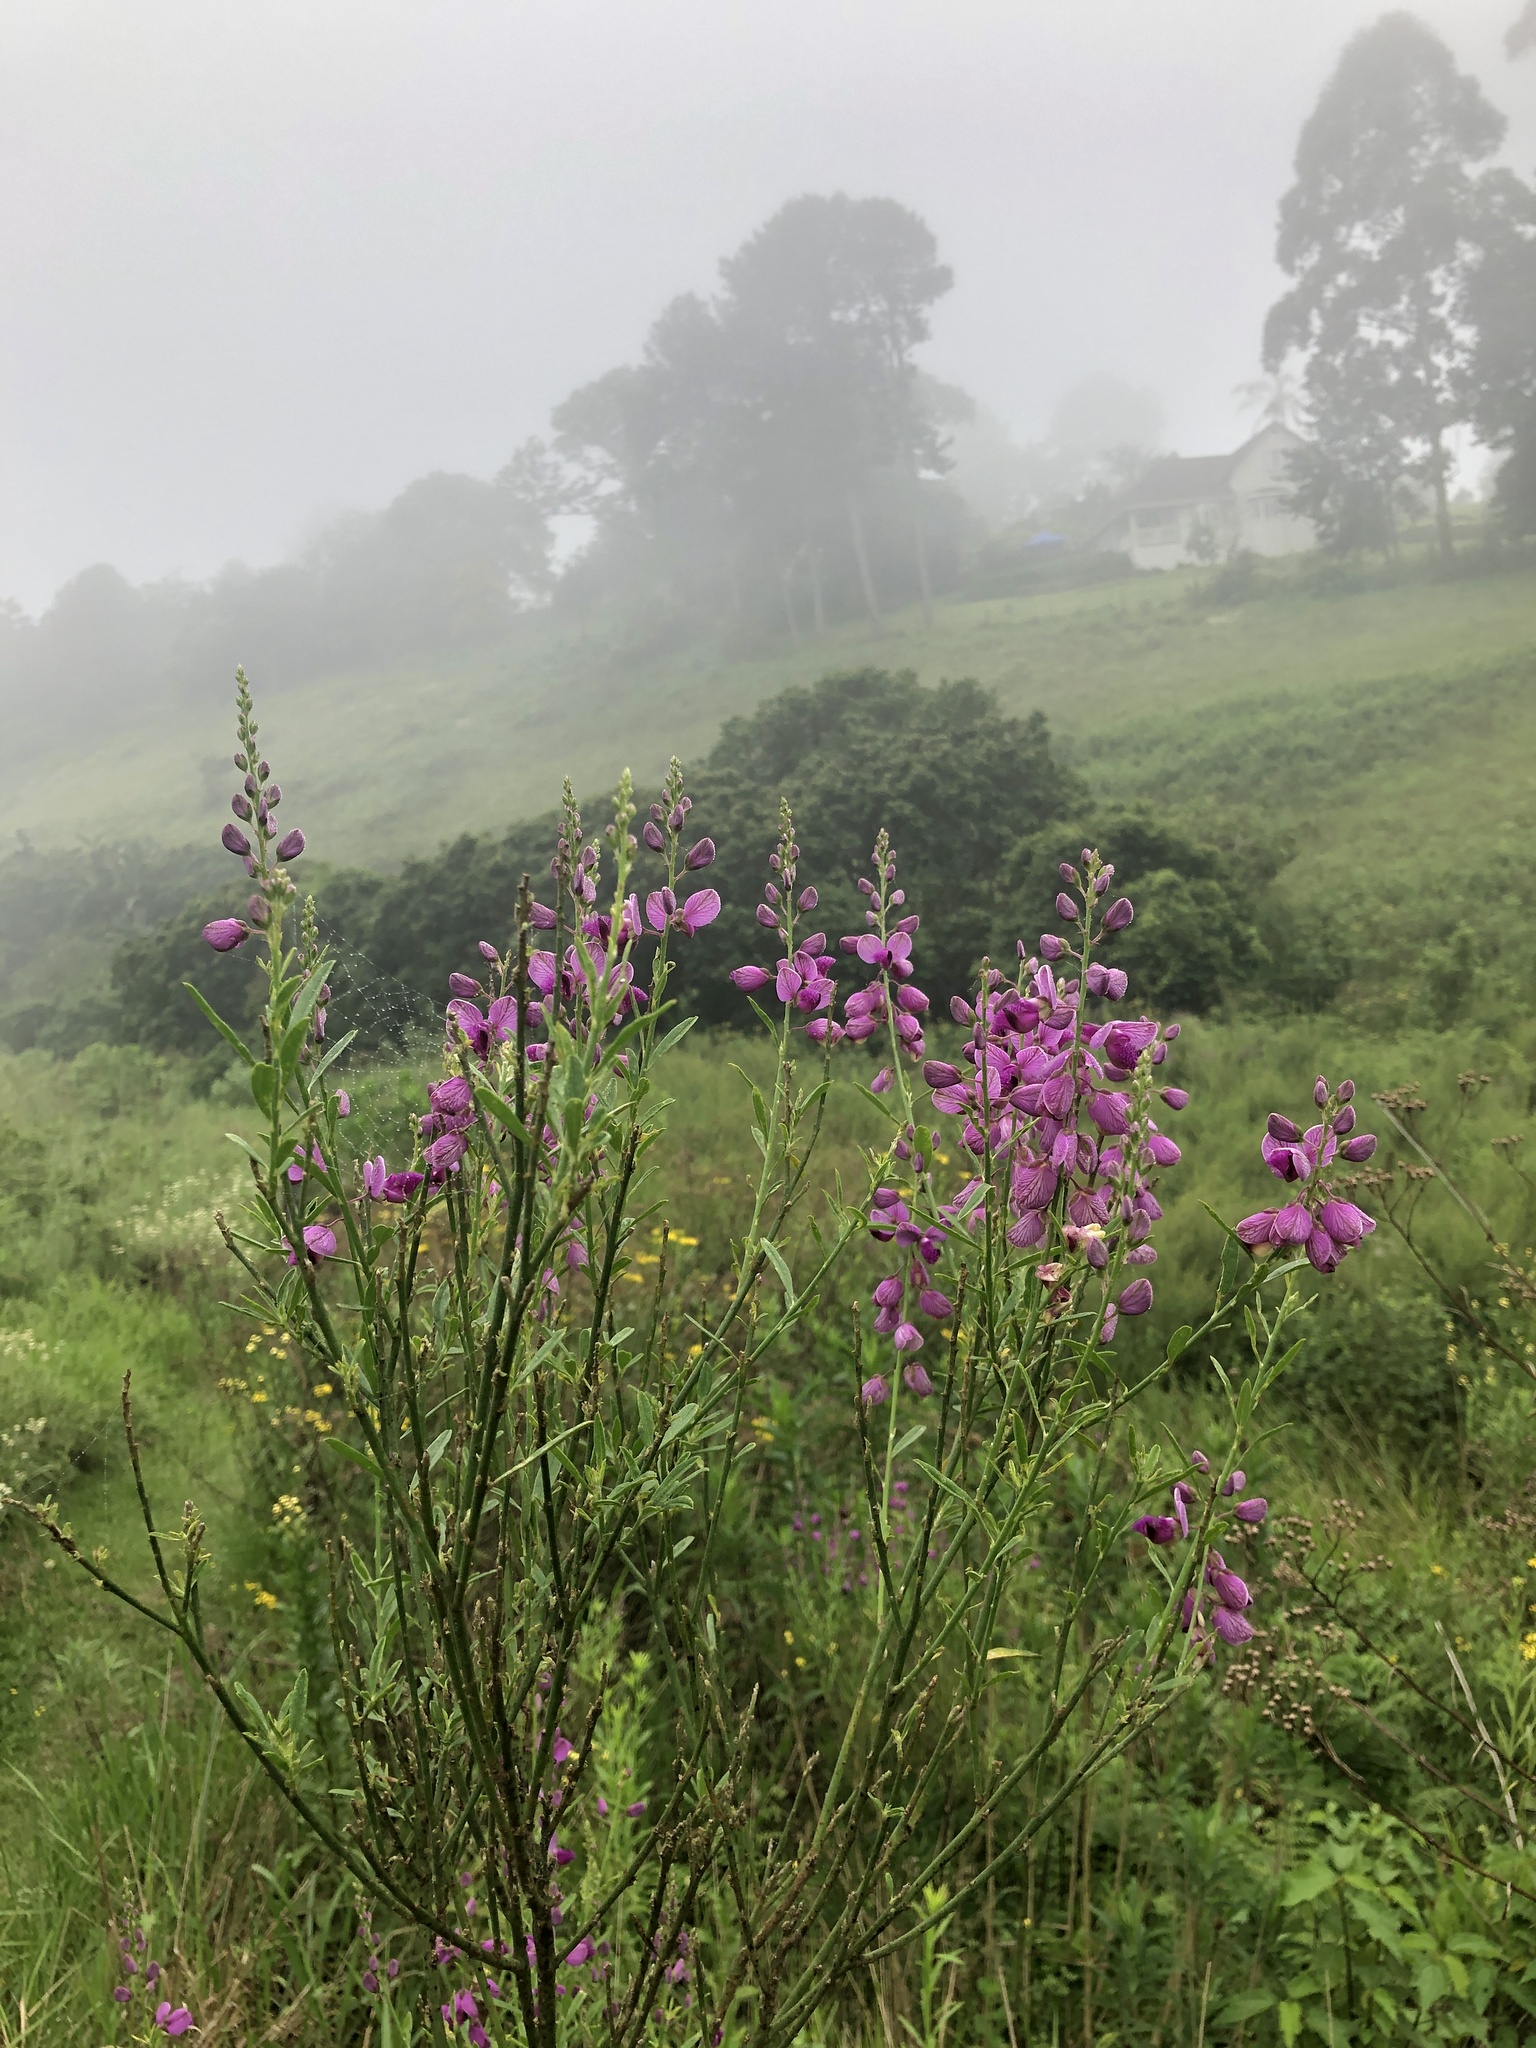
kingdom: Plantae
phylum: Tracheophyta
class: Magnoliopsida
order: Fabales
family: Polygalaceae
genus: Polygala
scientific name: Polygala virgata
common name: Milkwort
